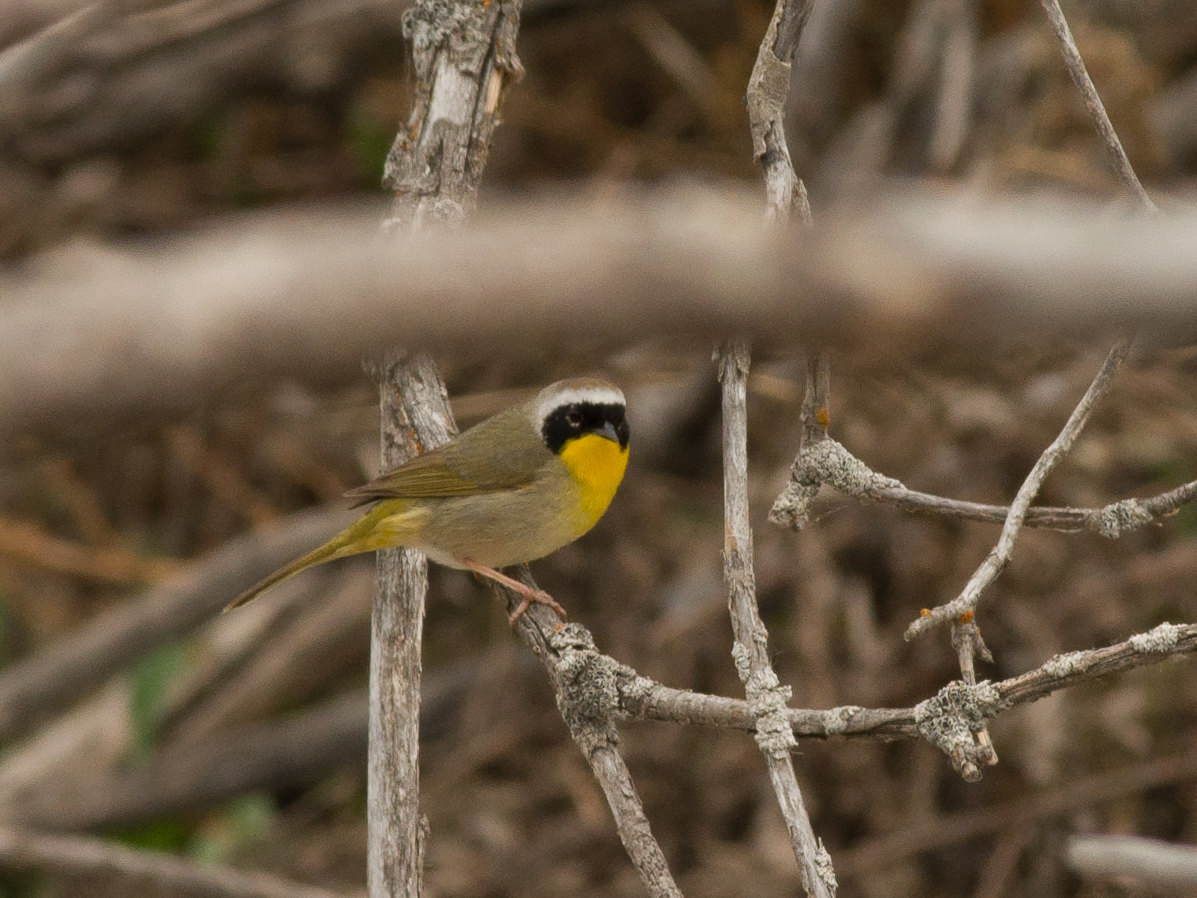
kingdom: Animalia
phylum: Chordata
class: Aves
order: Passeriformes
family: Parulidae
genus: Geothlypis
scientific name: Geothlypis trichas
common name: Common yellowthroat
